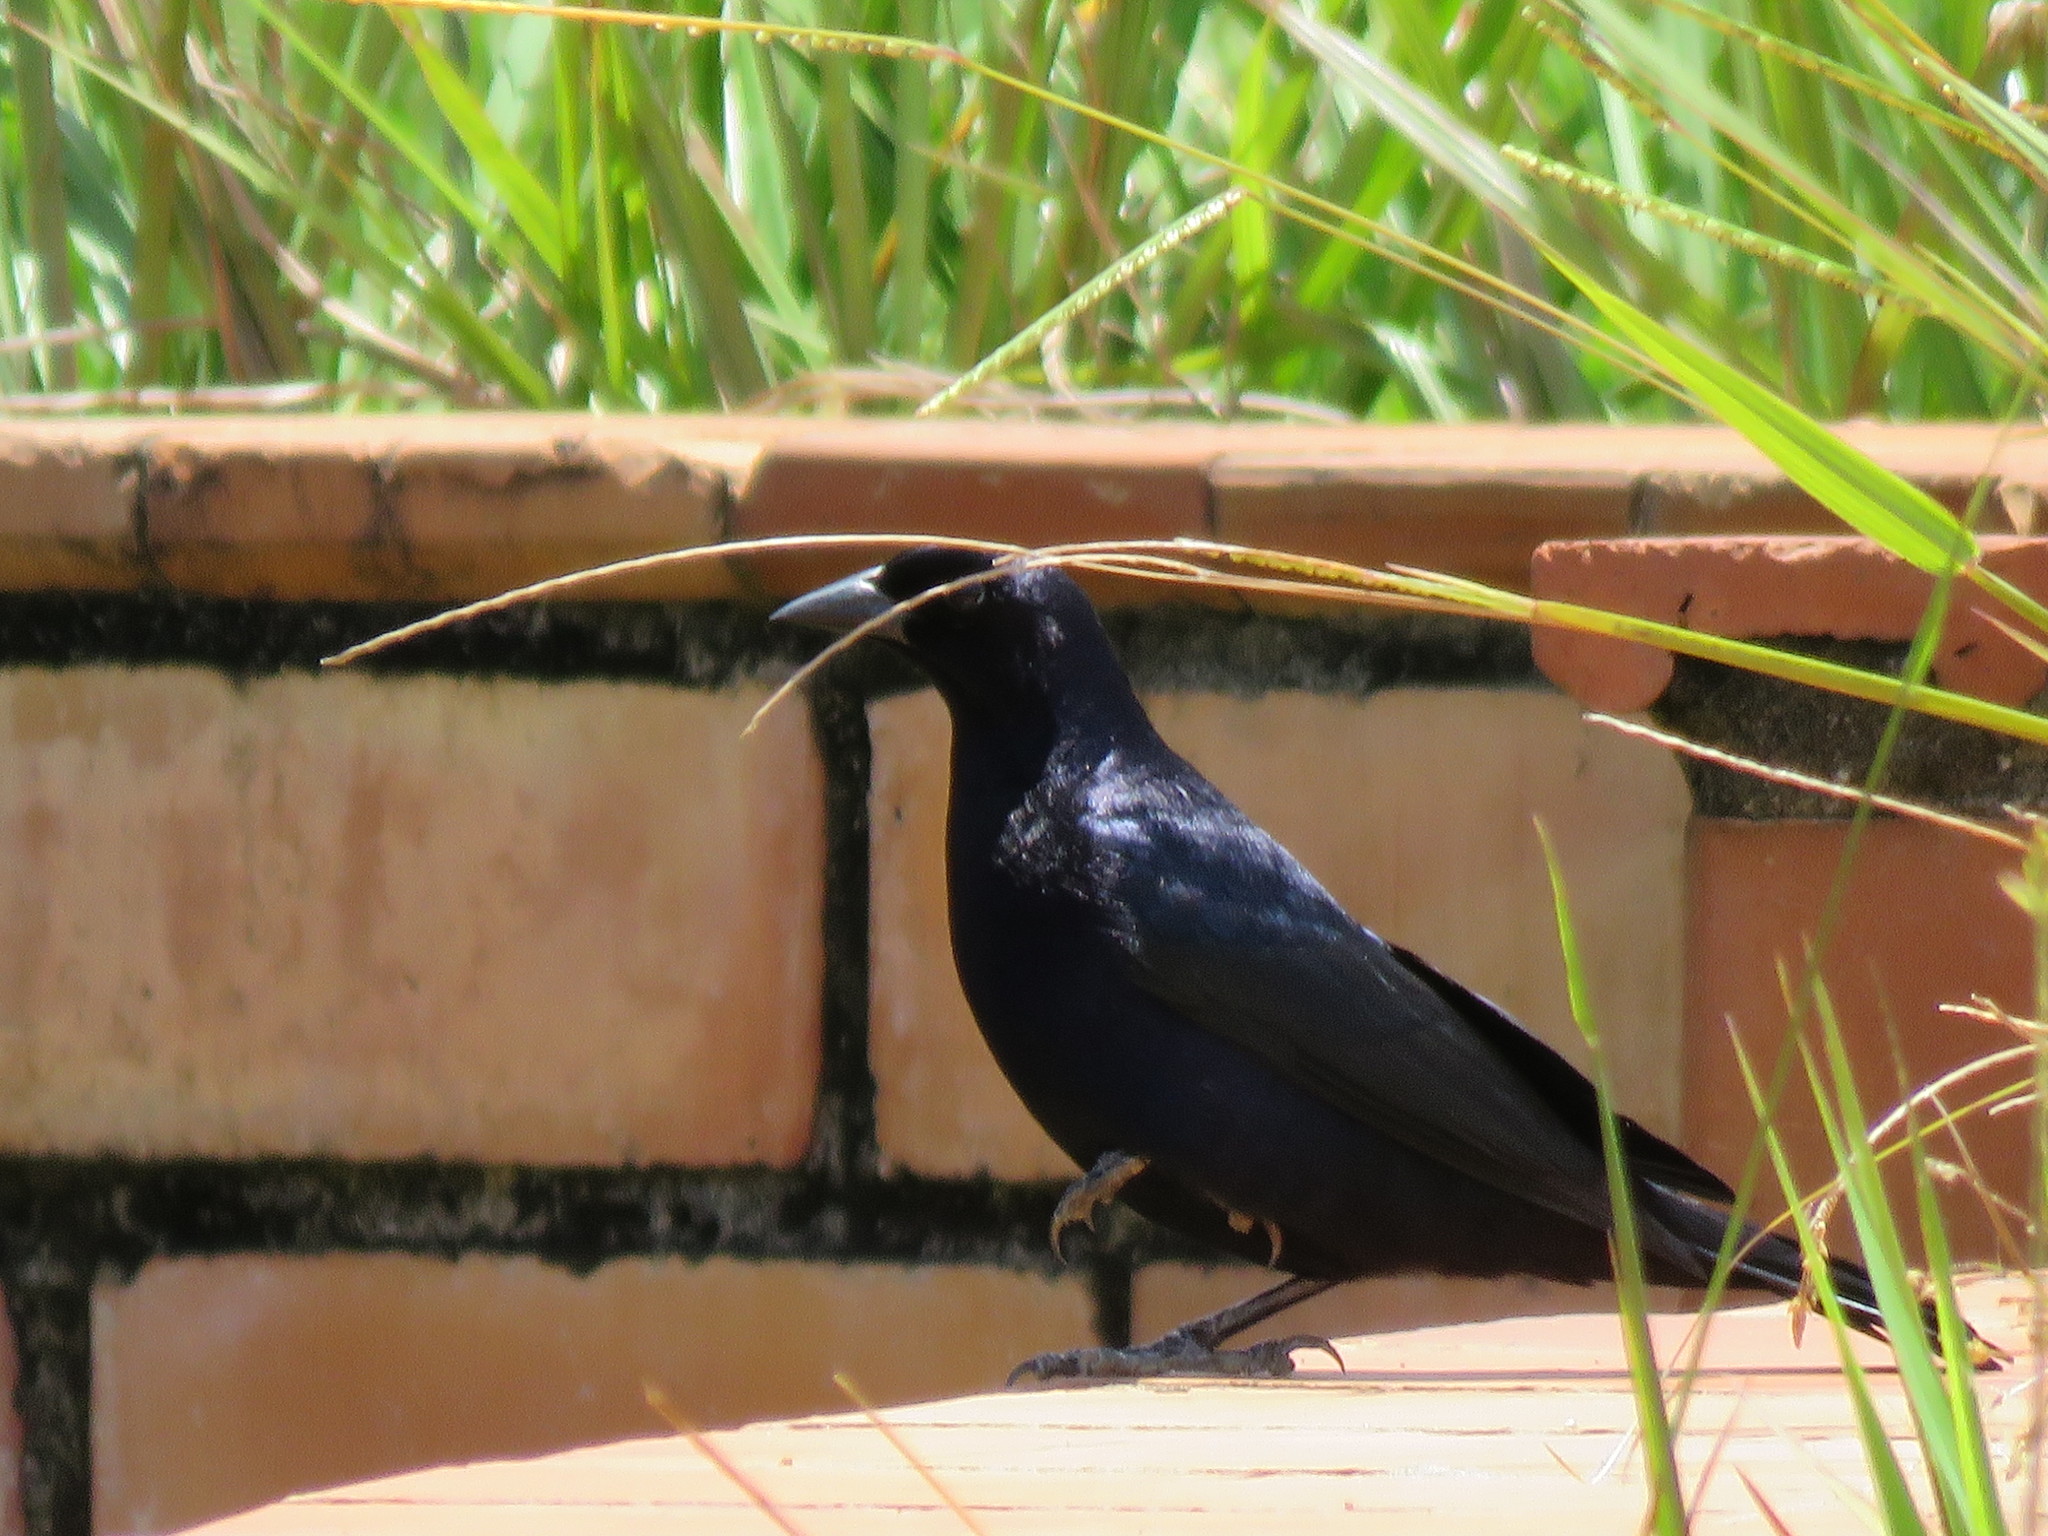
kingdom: Animalia
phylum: Chordata
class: Aves
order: Passeriformes
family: Icteridae
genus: Molothrus
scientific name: Molothrus bonariensis
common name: Shiny cowbird
